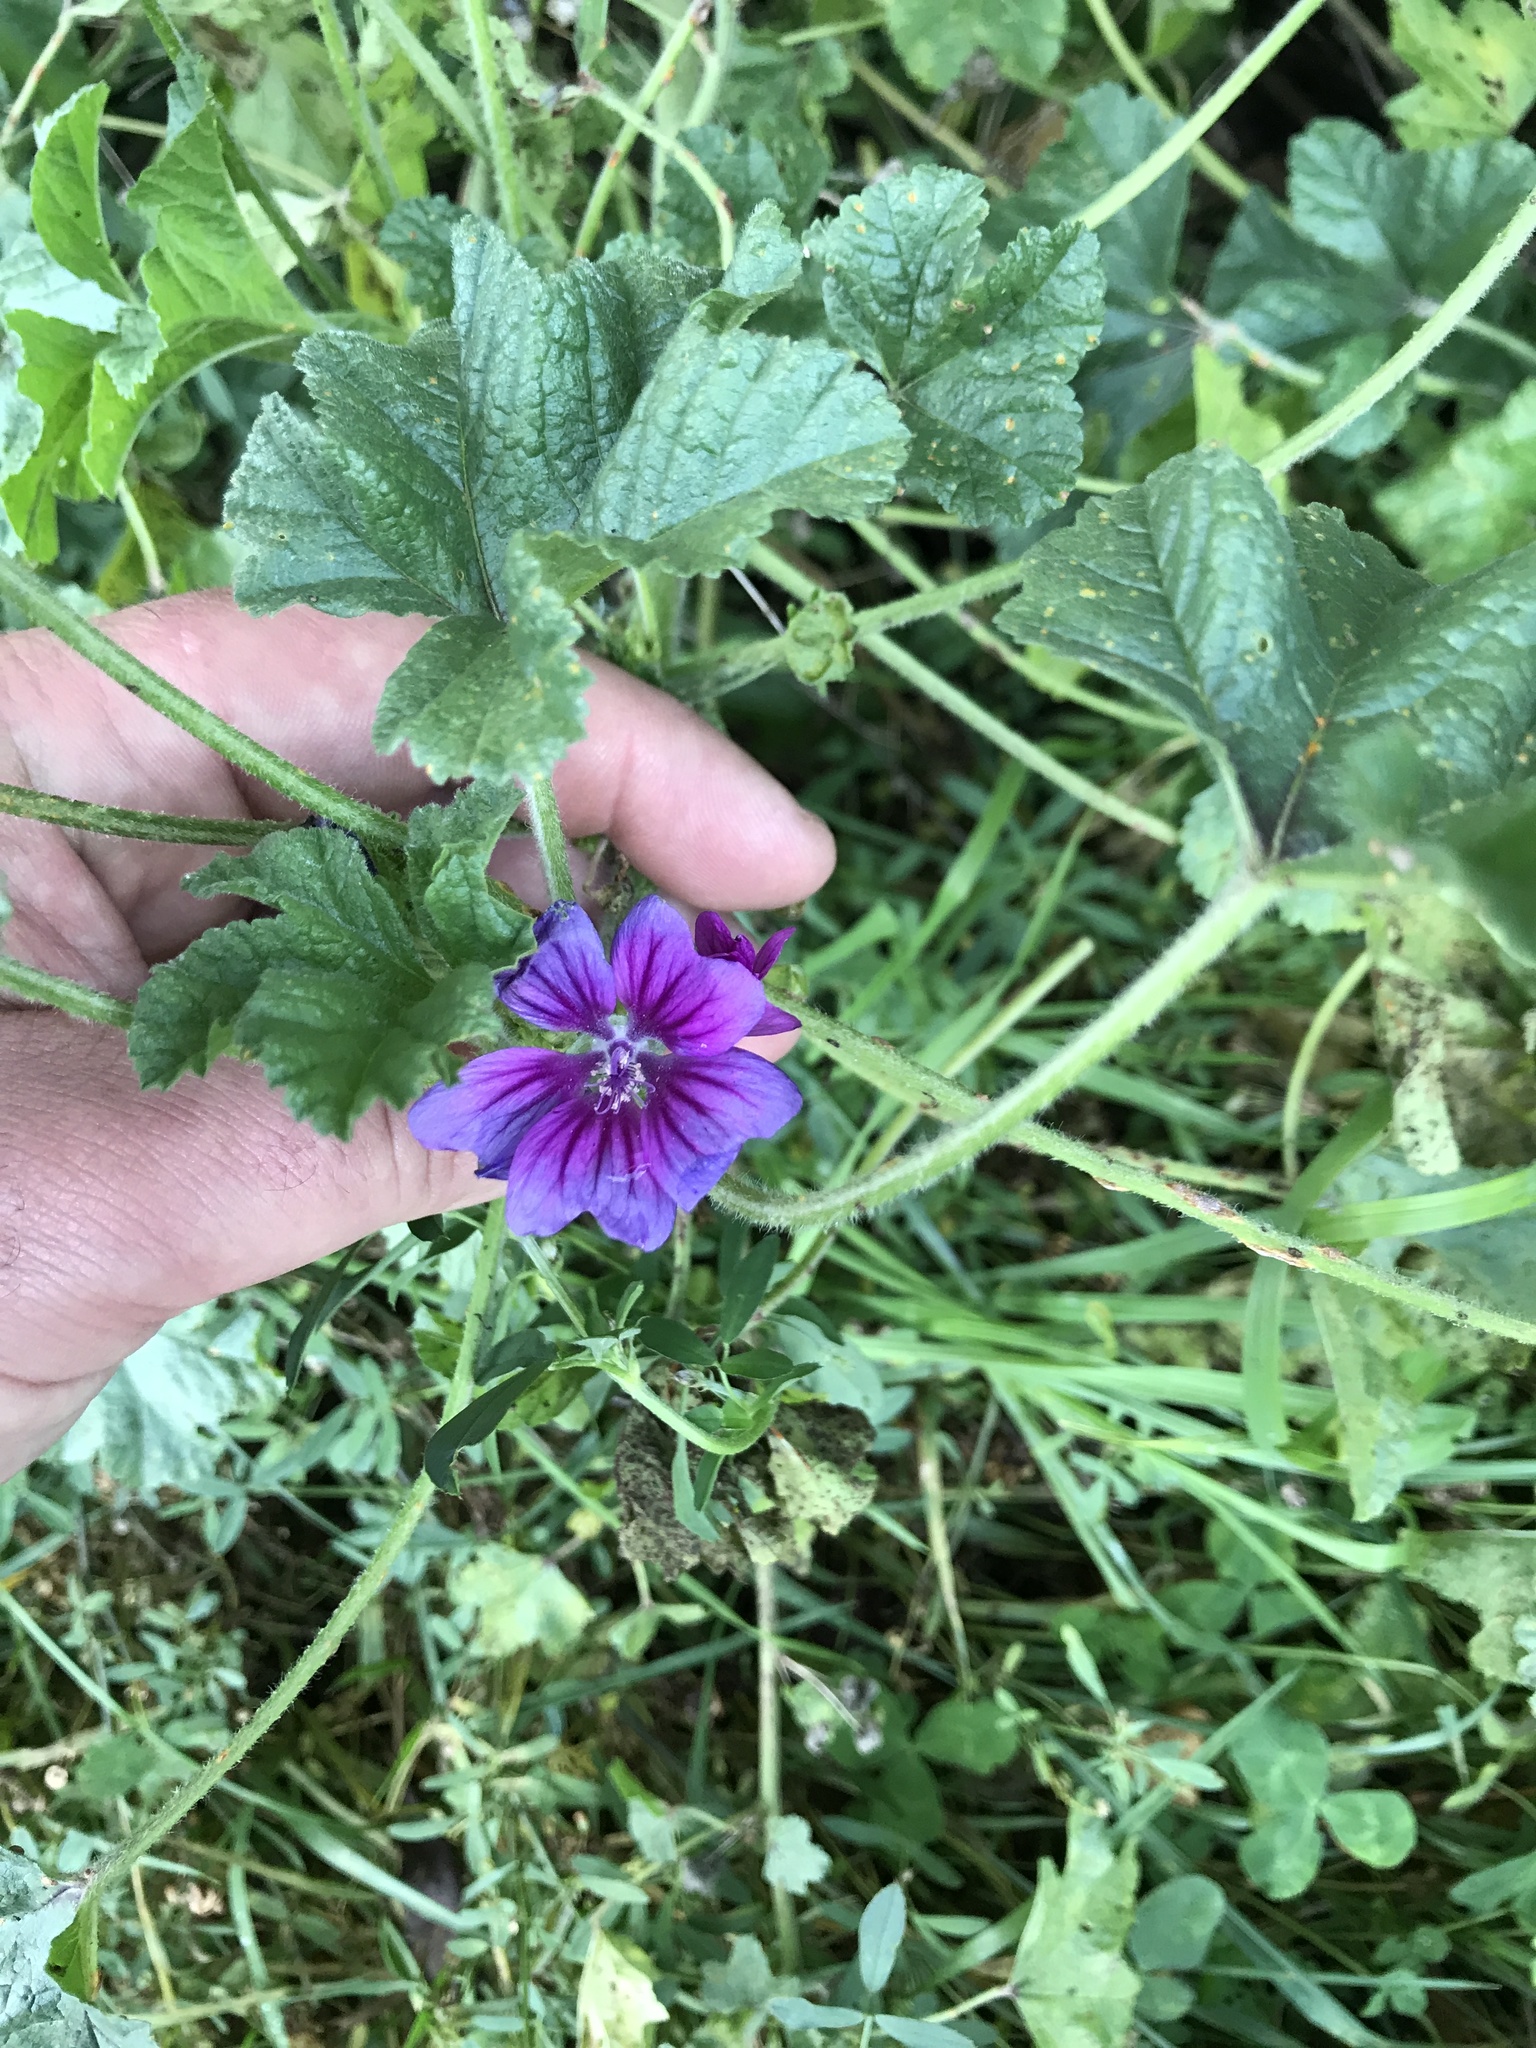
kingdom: Plantae
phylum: Tracheophyta
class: Magnoliopsida
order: Malvales
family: Malvaceae
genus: Malva
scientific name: Malva sylvestris
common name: Common mallow
